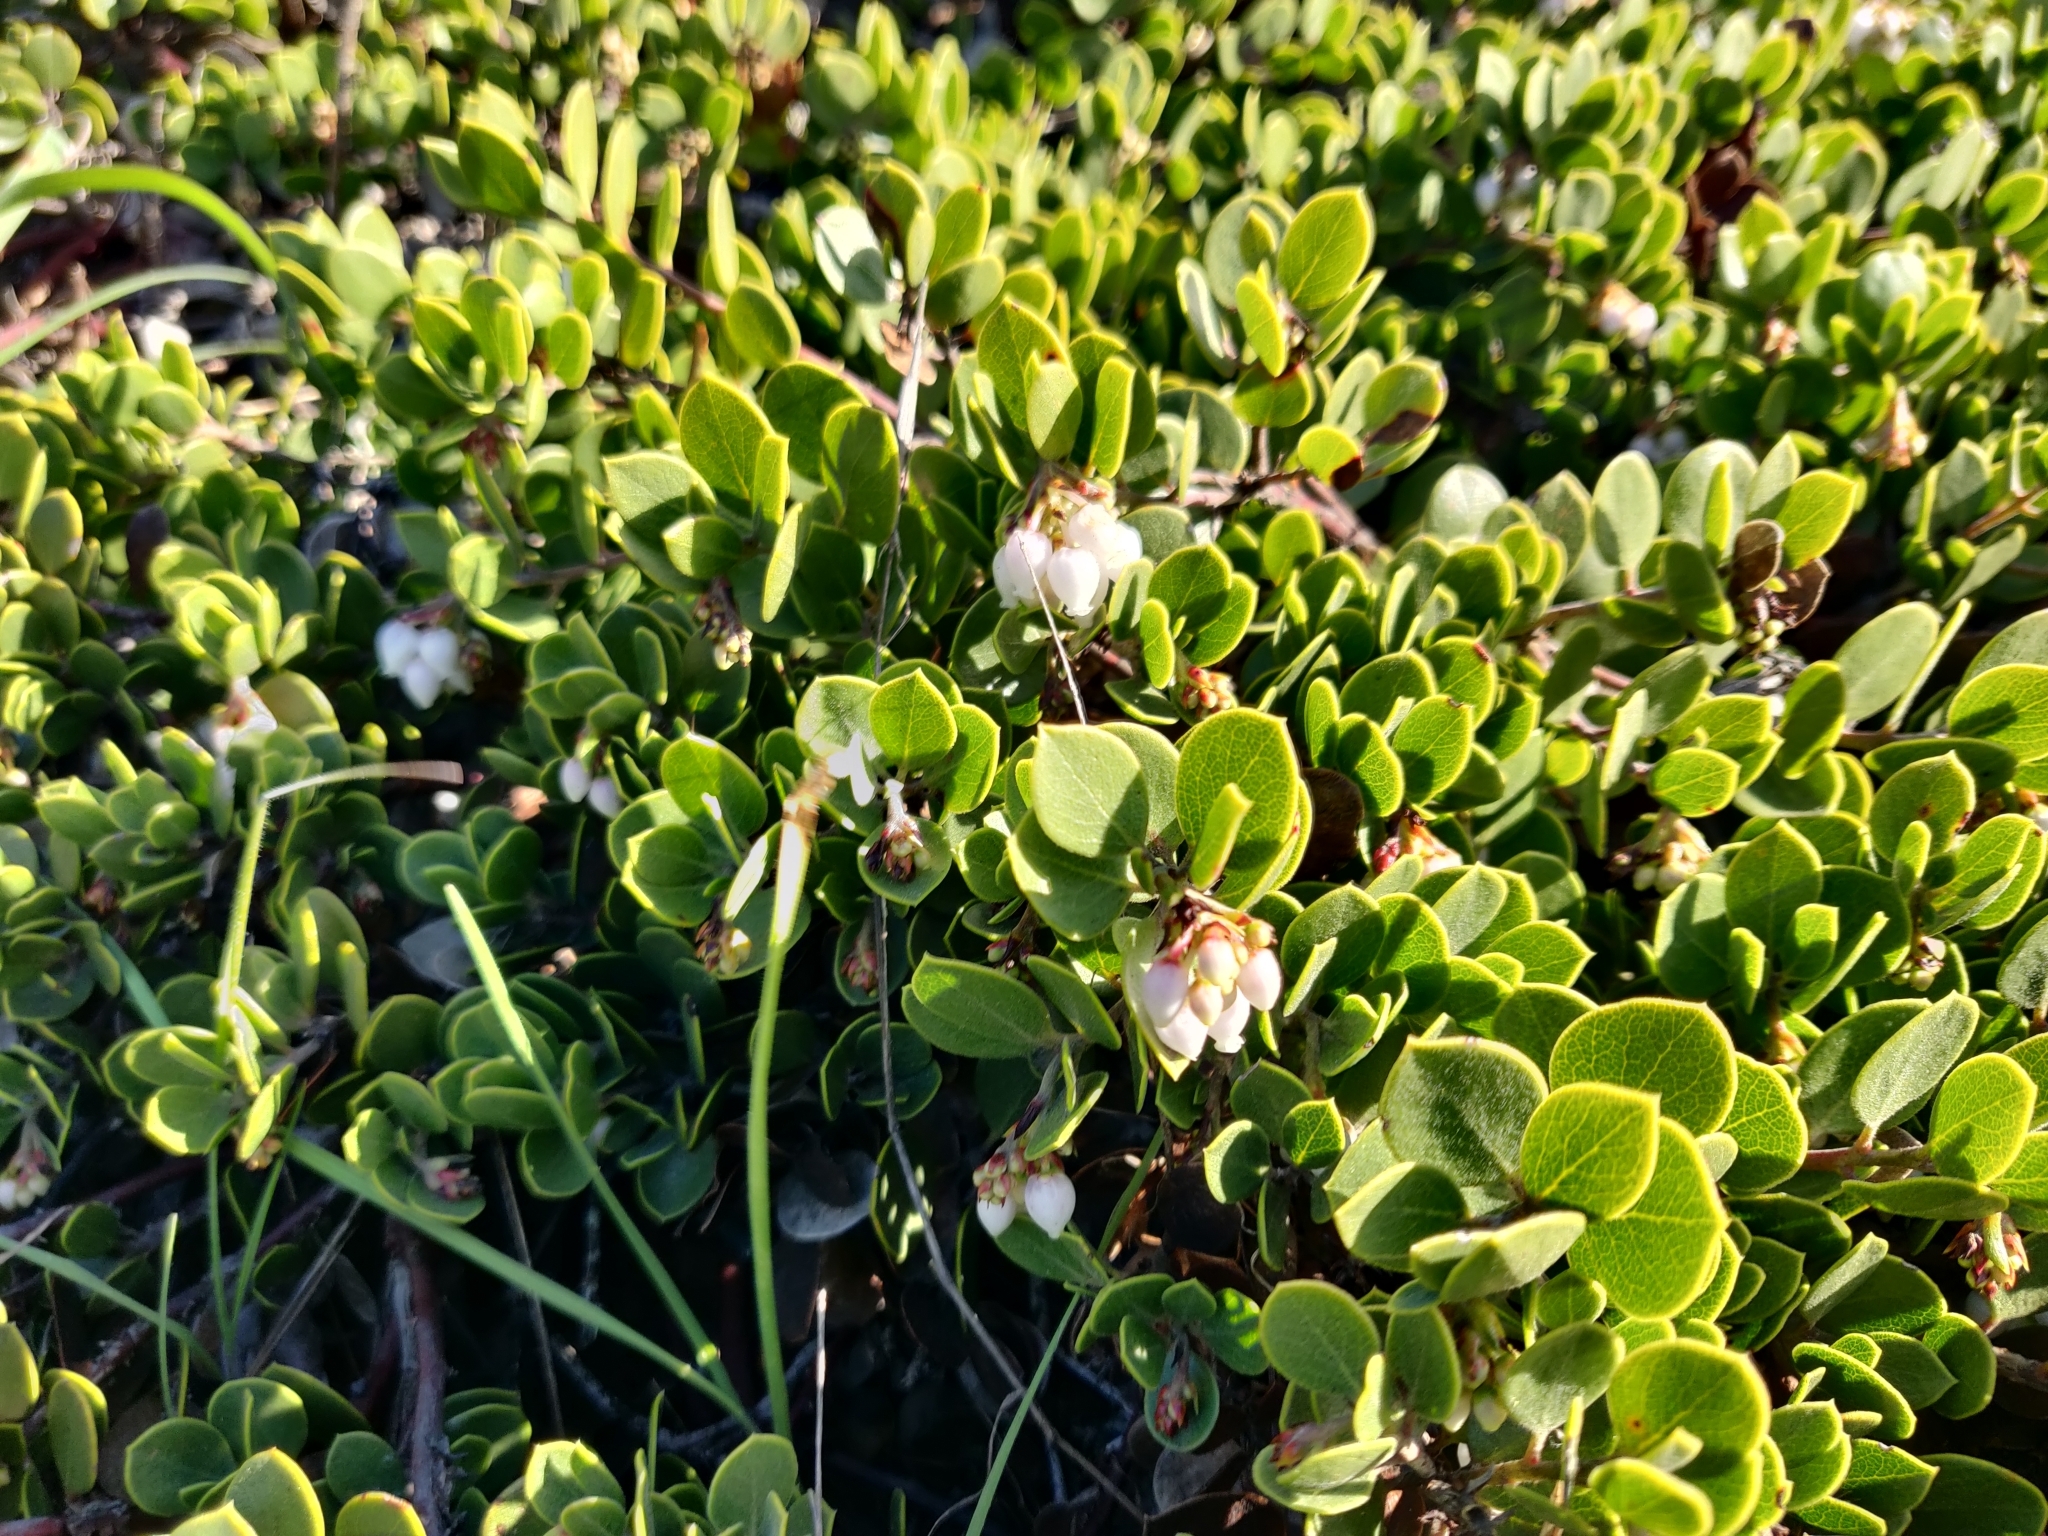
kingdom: Plantae
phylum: Tracheophyta
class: Magnoliopsida
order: Ericales
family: Ericaceae
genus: Arctostaphylos
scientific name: Arctostaphylos mewukka
